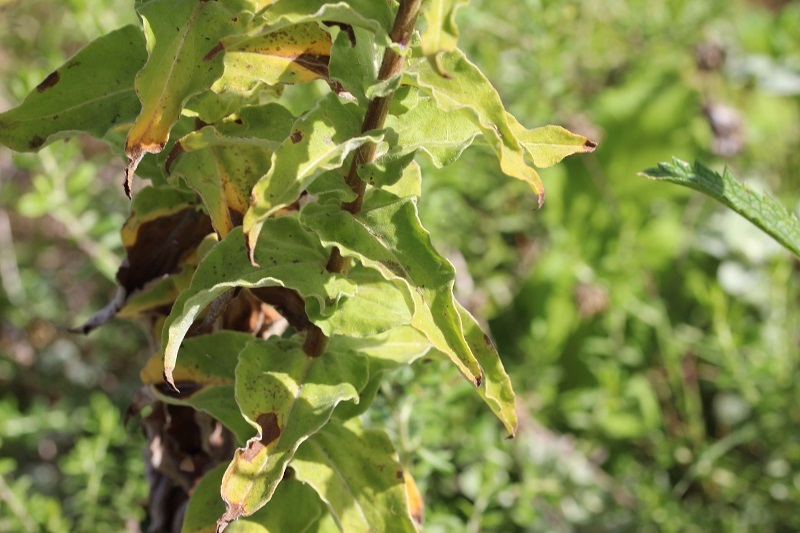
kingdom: Plantae
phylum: Tracheophyta
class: Magnoliopsida
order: Asterales
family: Asteraceae
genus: Helichrysum
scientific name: Helichrysum foetidum
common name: Stinking everlasting
